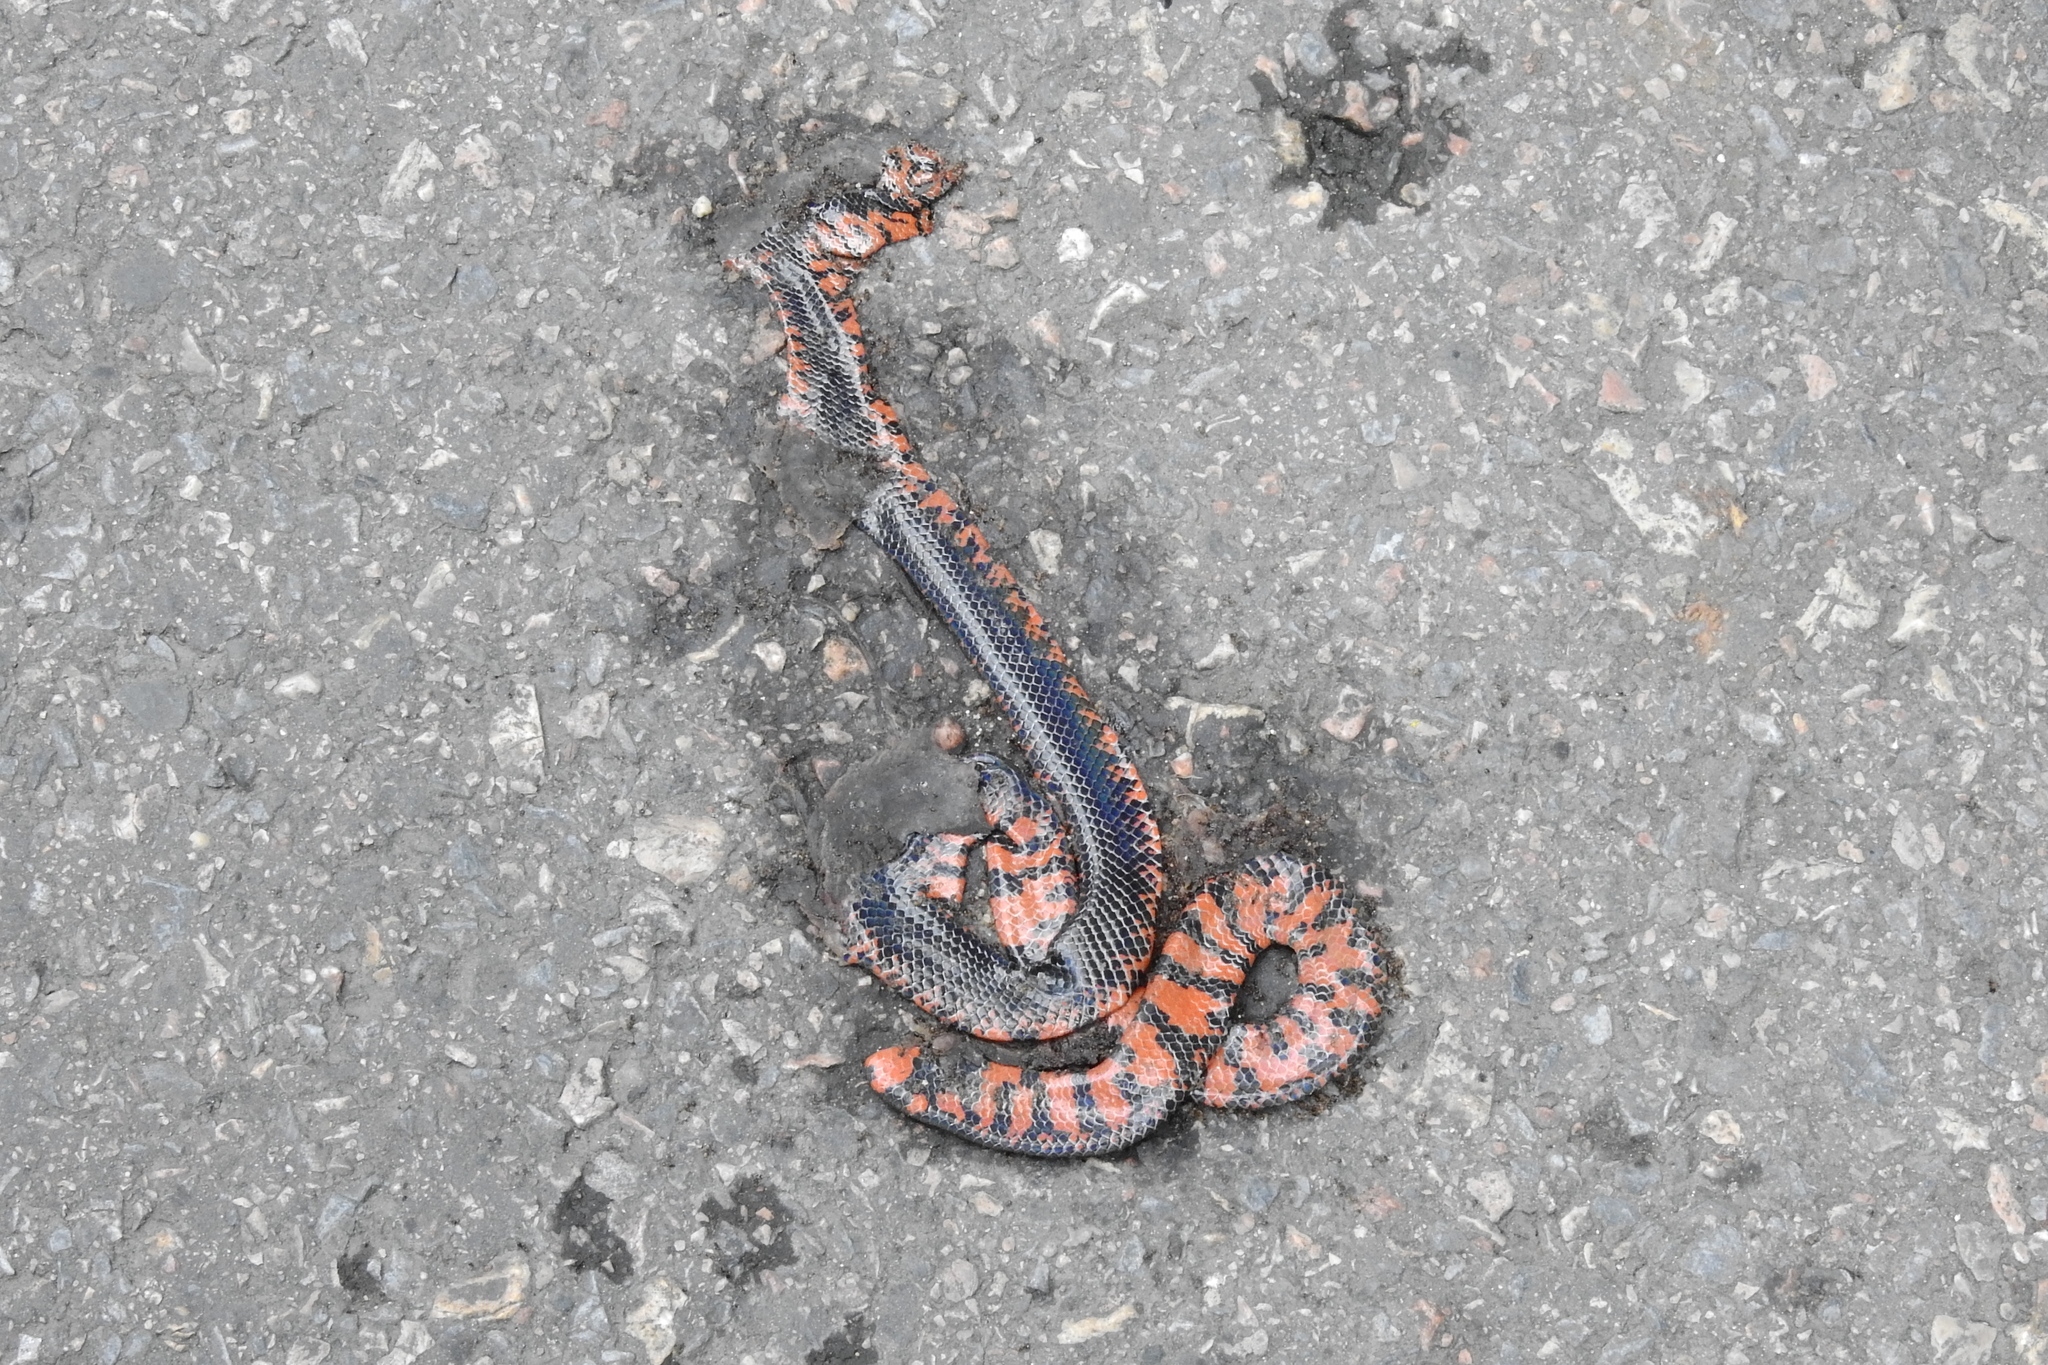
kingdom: Animalia
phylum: Chordata
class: Squamata
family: Cylindrophiidae
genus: Cylindrophis
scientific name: Cylindrophis melanotus
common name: Black pipe snake
